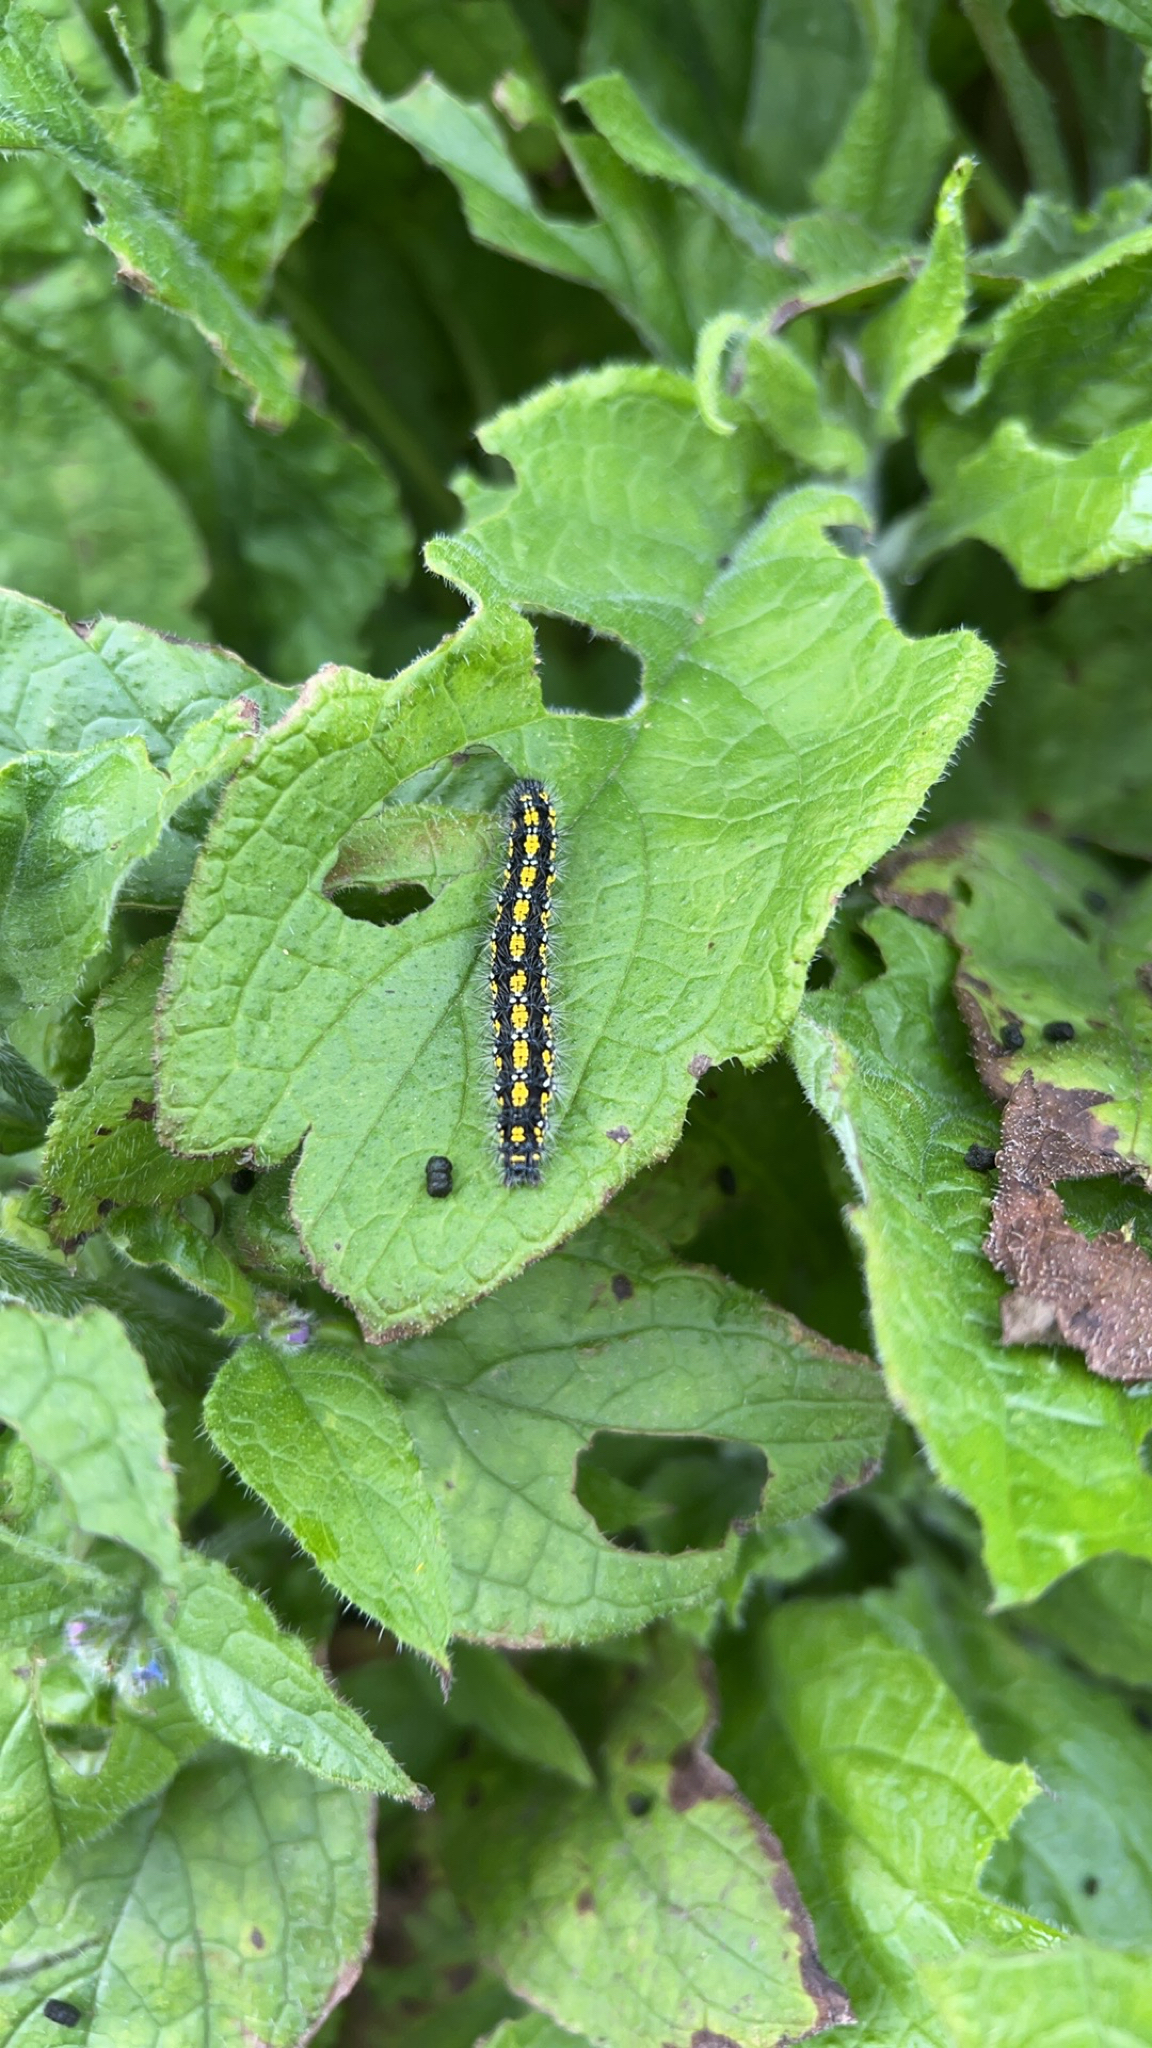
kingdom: Animalia
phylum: Arthropoda
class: Insecta
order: Lepidoptera
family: Erebidae
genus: Callimorpha
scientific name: Callimorpha dominula
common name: Scarlet tiger
